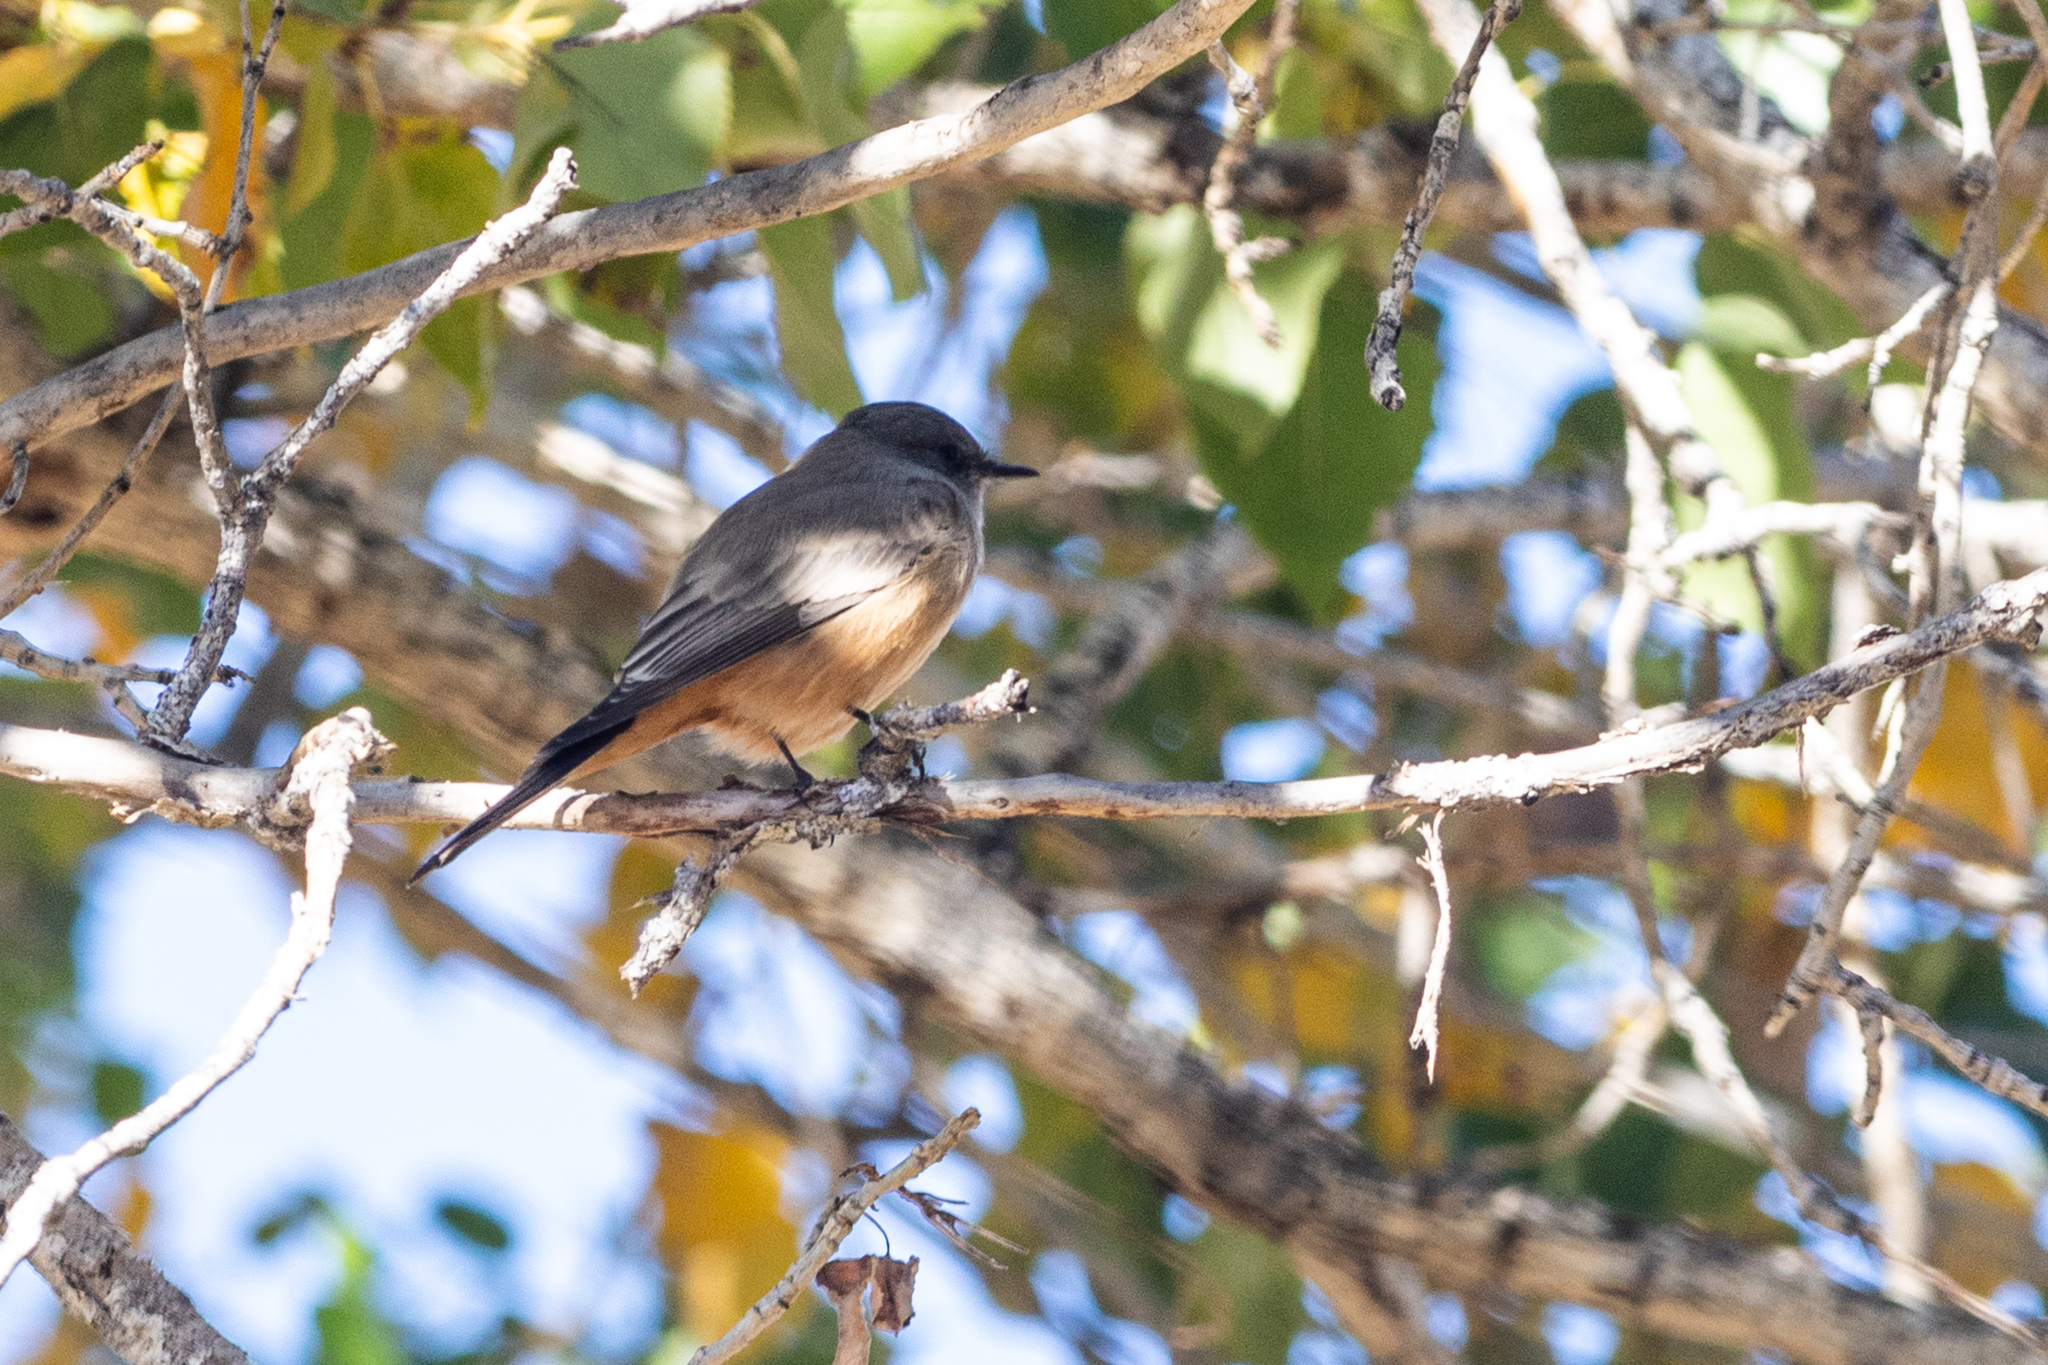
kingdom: Animalia
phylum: Chordata
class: Aves
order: Passeriformes
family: Tyrannidae
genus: Sayornis
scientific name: Sayornis saya
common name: Say's phoebe
